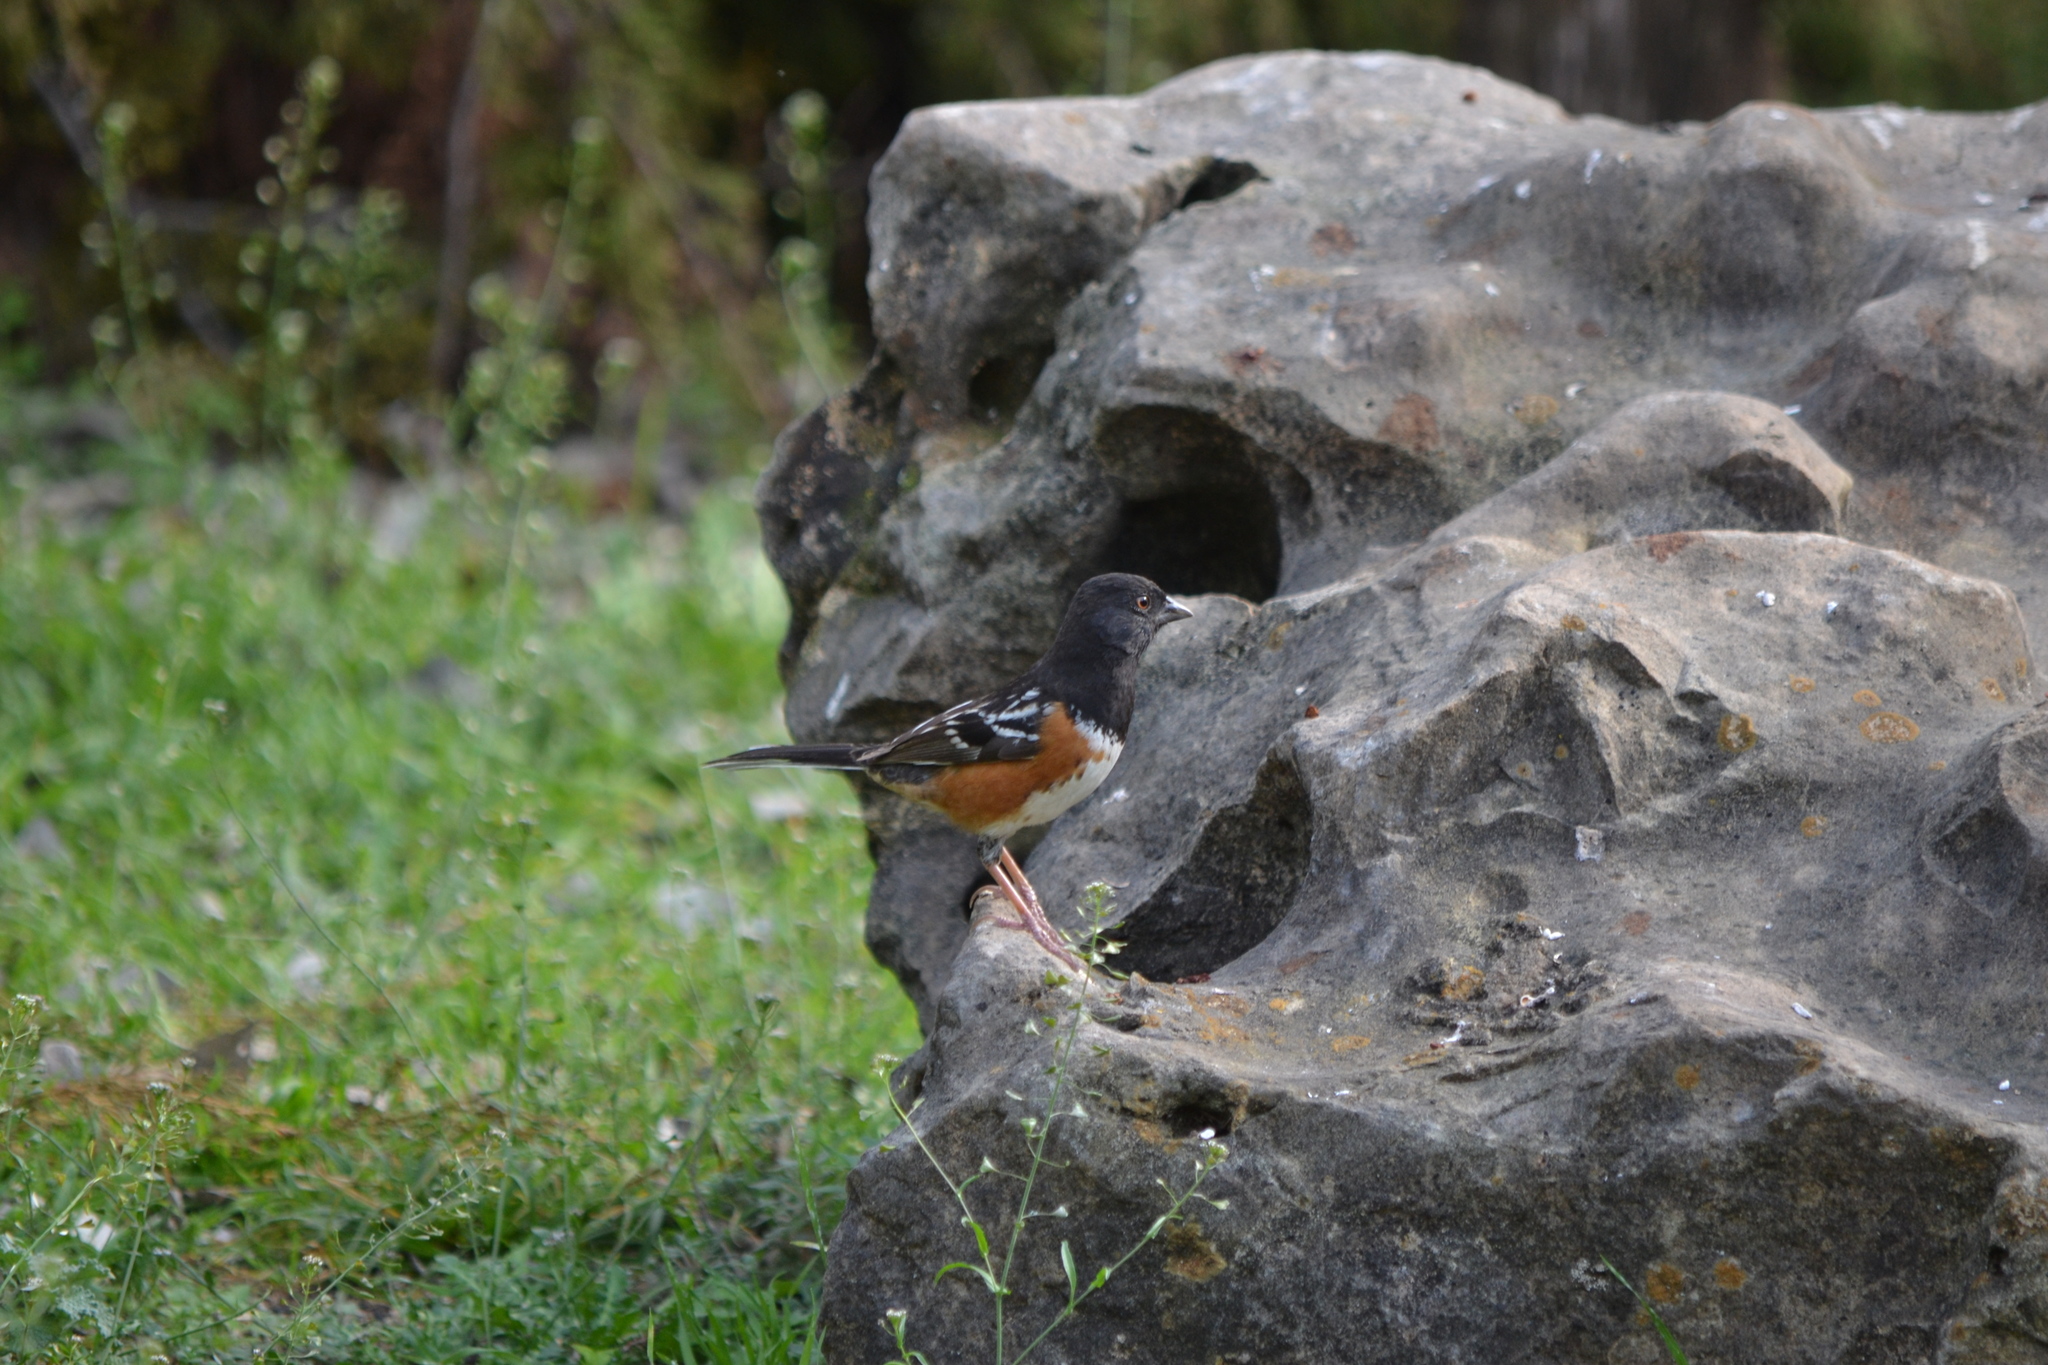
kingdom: Animalia
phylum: Chordata
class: Aves
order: Passeriformes
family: Passerellidae
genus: Pipilo
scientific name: Pipilo maculatus
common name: Spotted towhee
